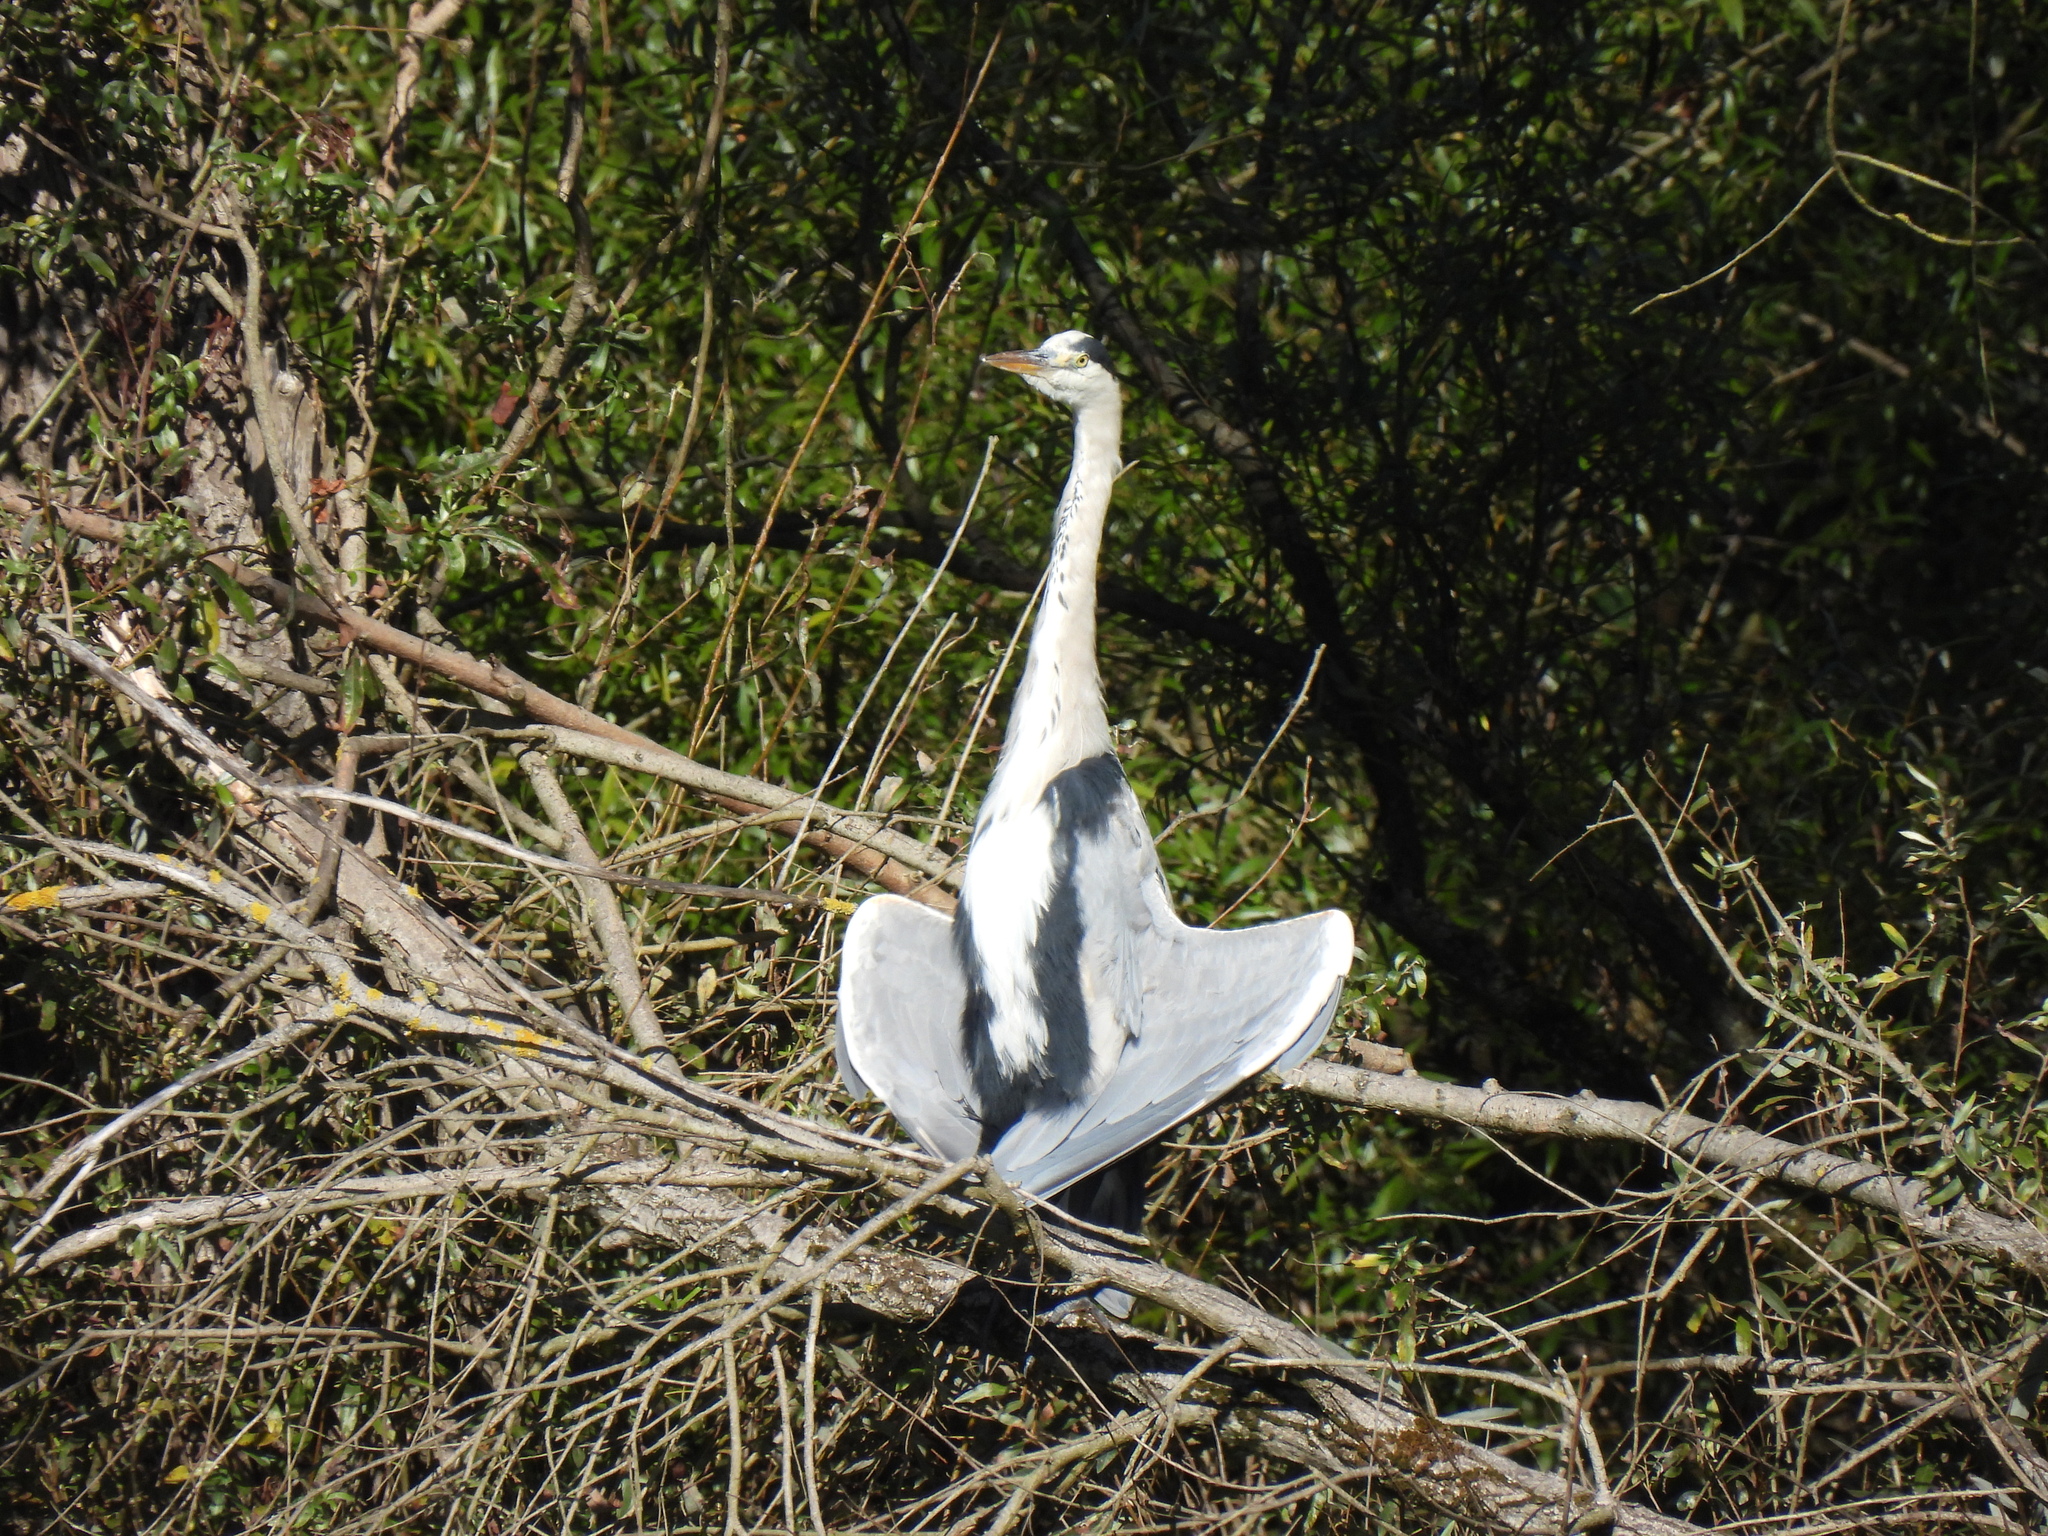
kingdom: Animalia
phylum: Chordata
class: Aves
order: Pelecaniformes
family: Ardeidae
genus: Ardea
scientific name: Ardea cinerea
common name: Grey heron
